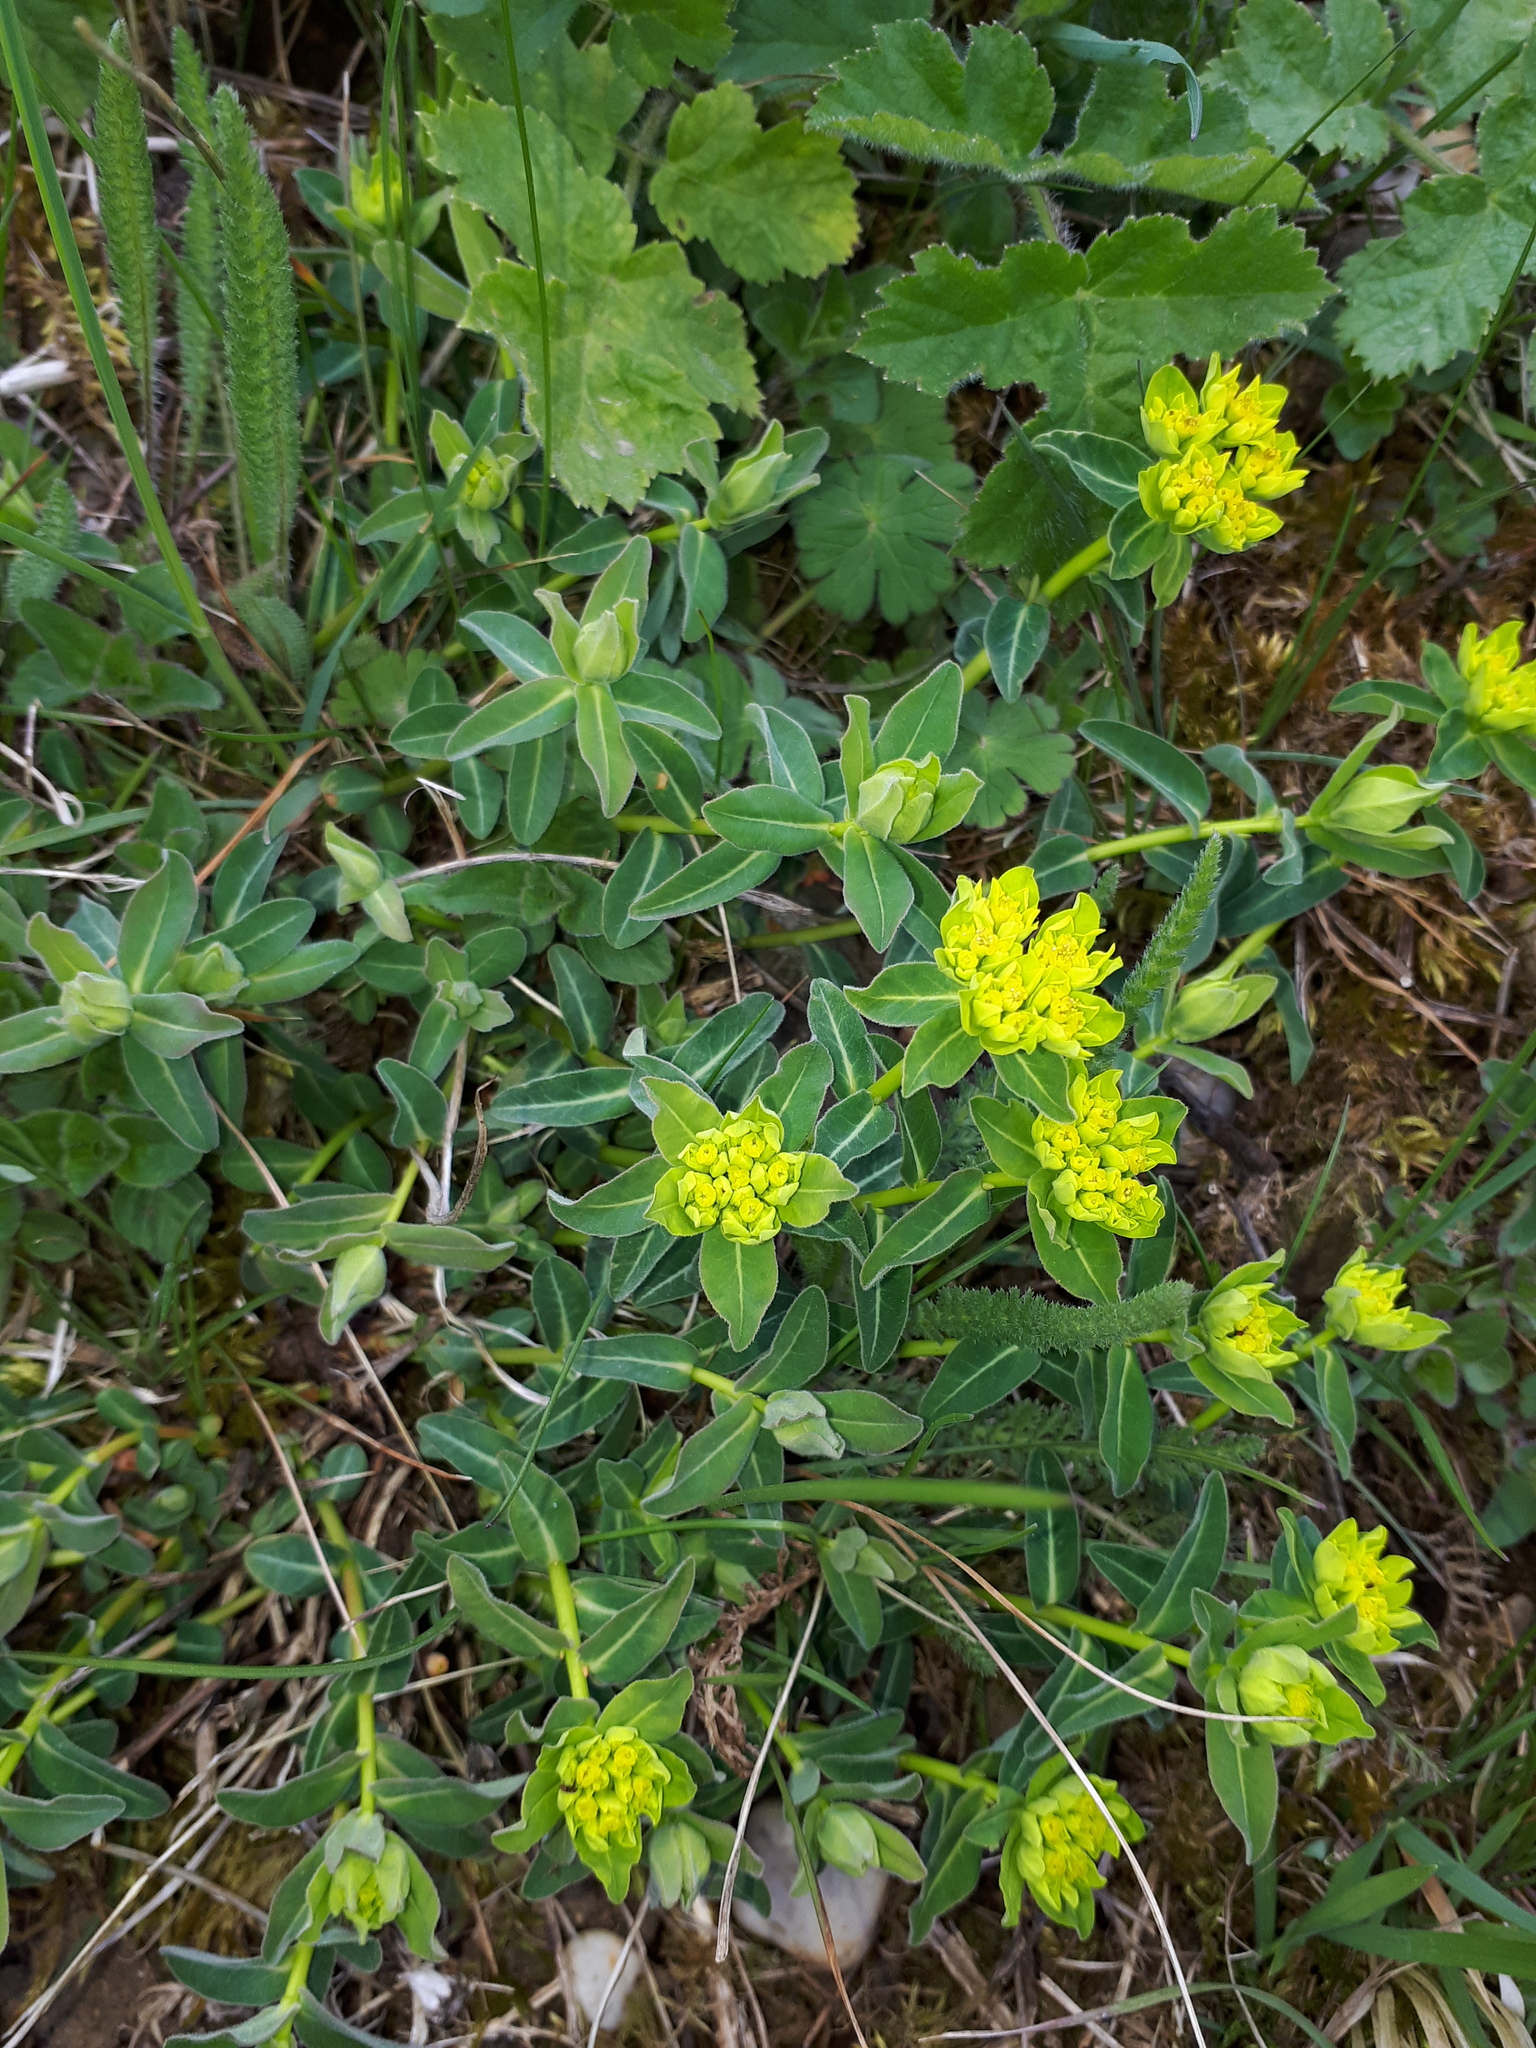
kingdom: Plantae
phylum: Tracheophyta
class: Magnoliopsida
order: Malpighiales
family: Euphorbiaceae
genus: Euphorbia
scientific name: Euphorbia verrucosa
